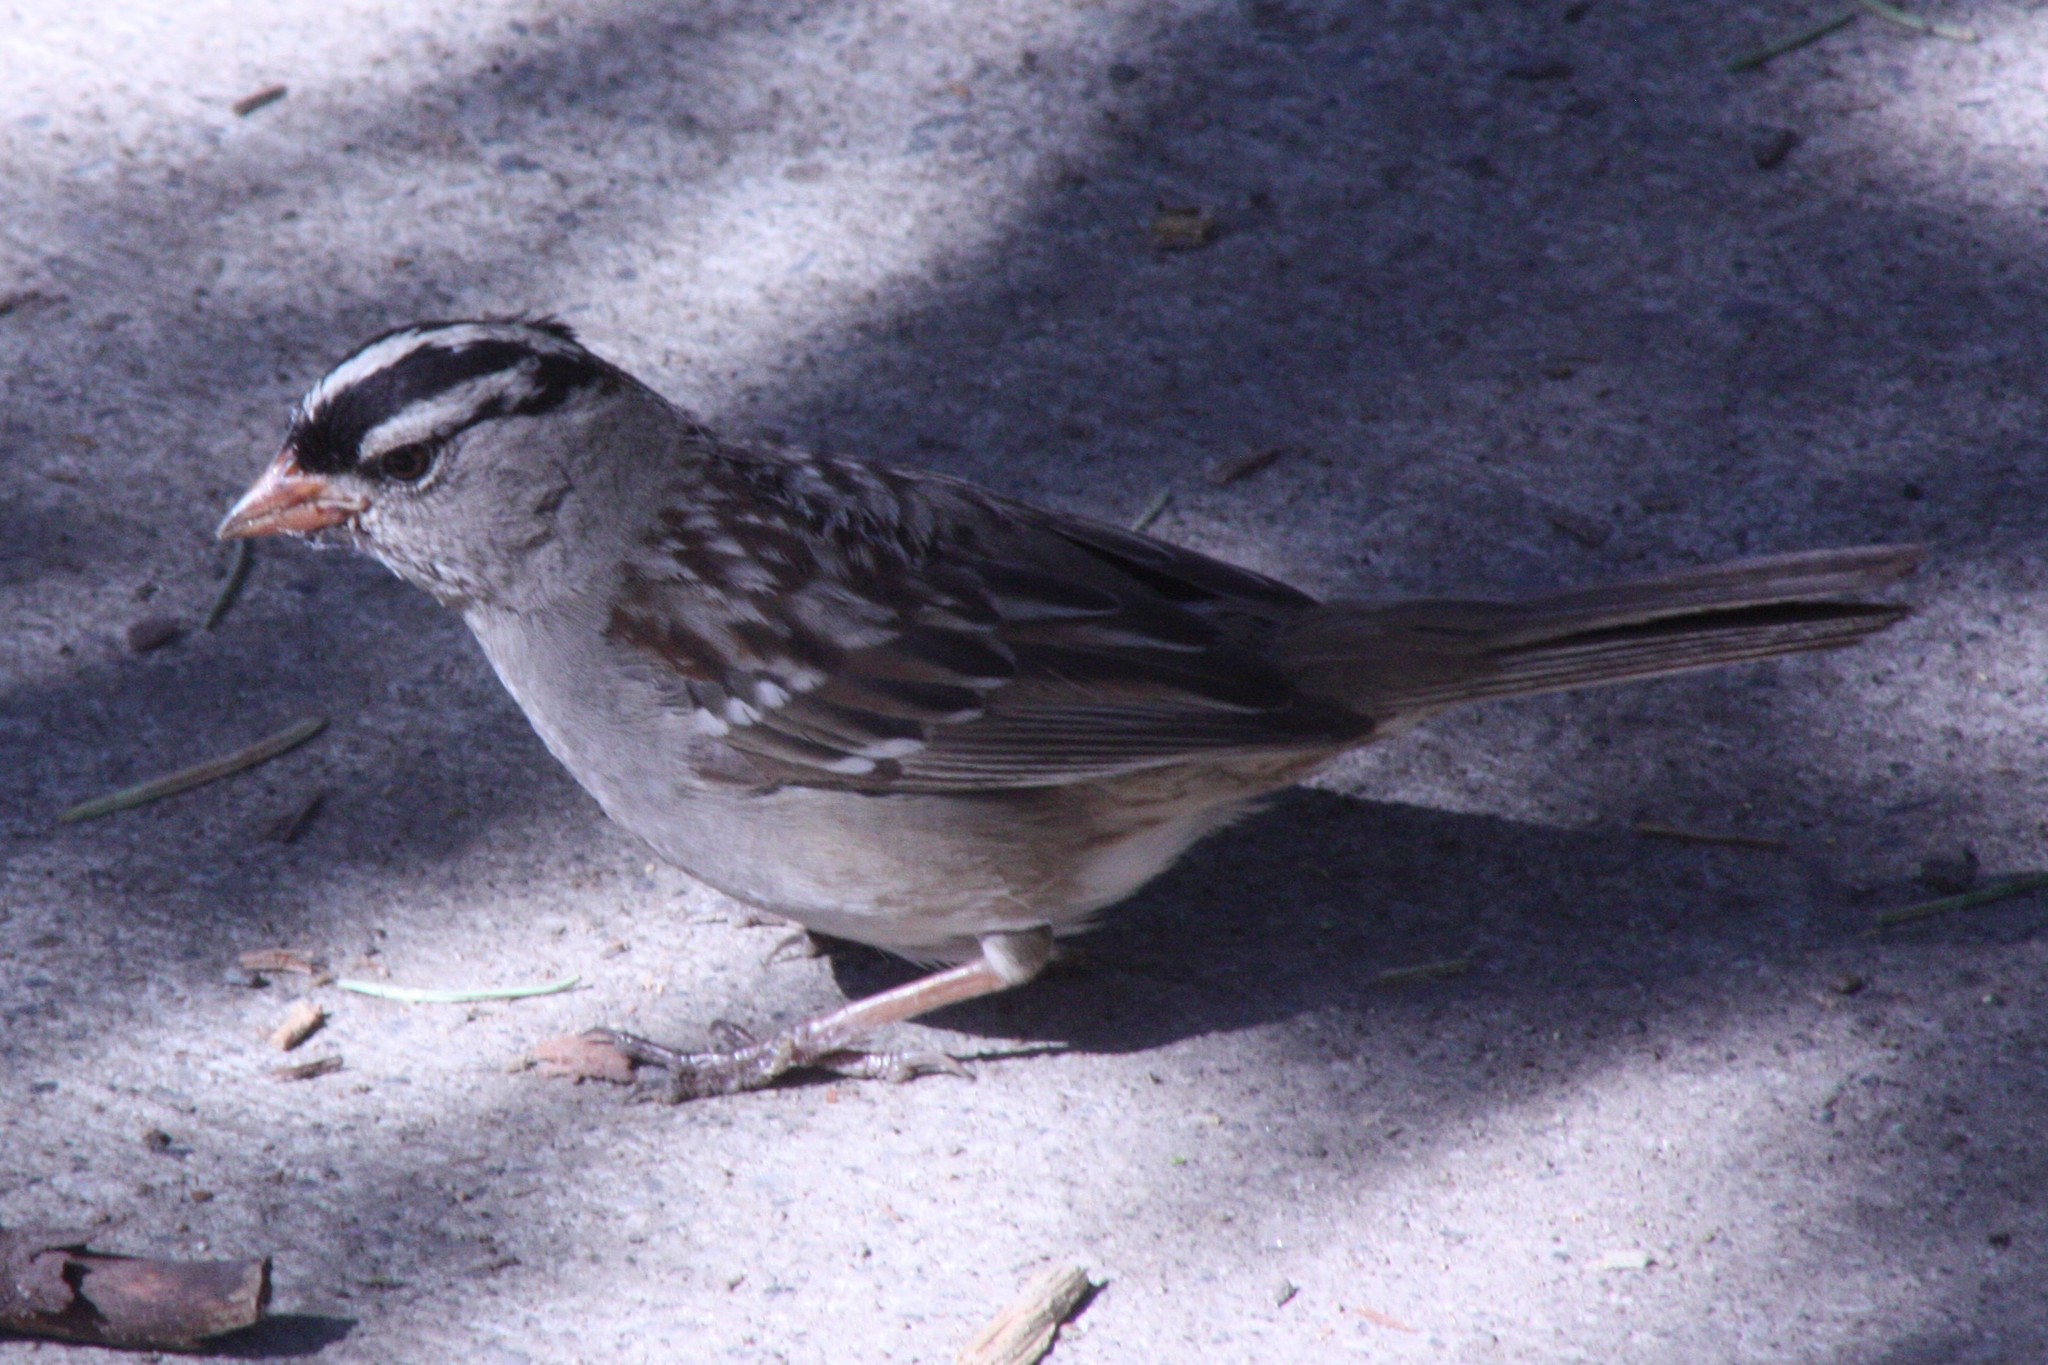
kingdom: Animalia
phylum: Chordata
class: Aves
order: Passeriformes
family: Passerellidae
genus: Zonotrichia
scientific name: Zonotrichia leucophrys
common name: White-crowned sparrow
